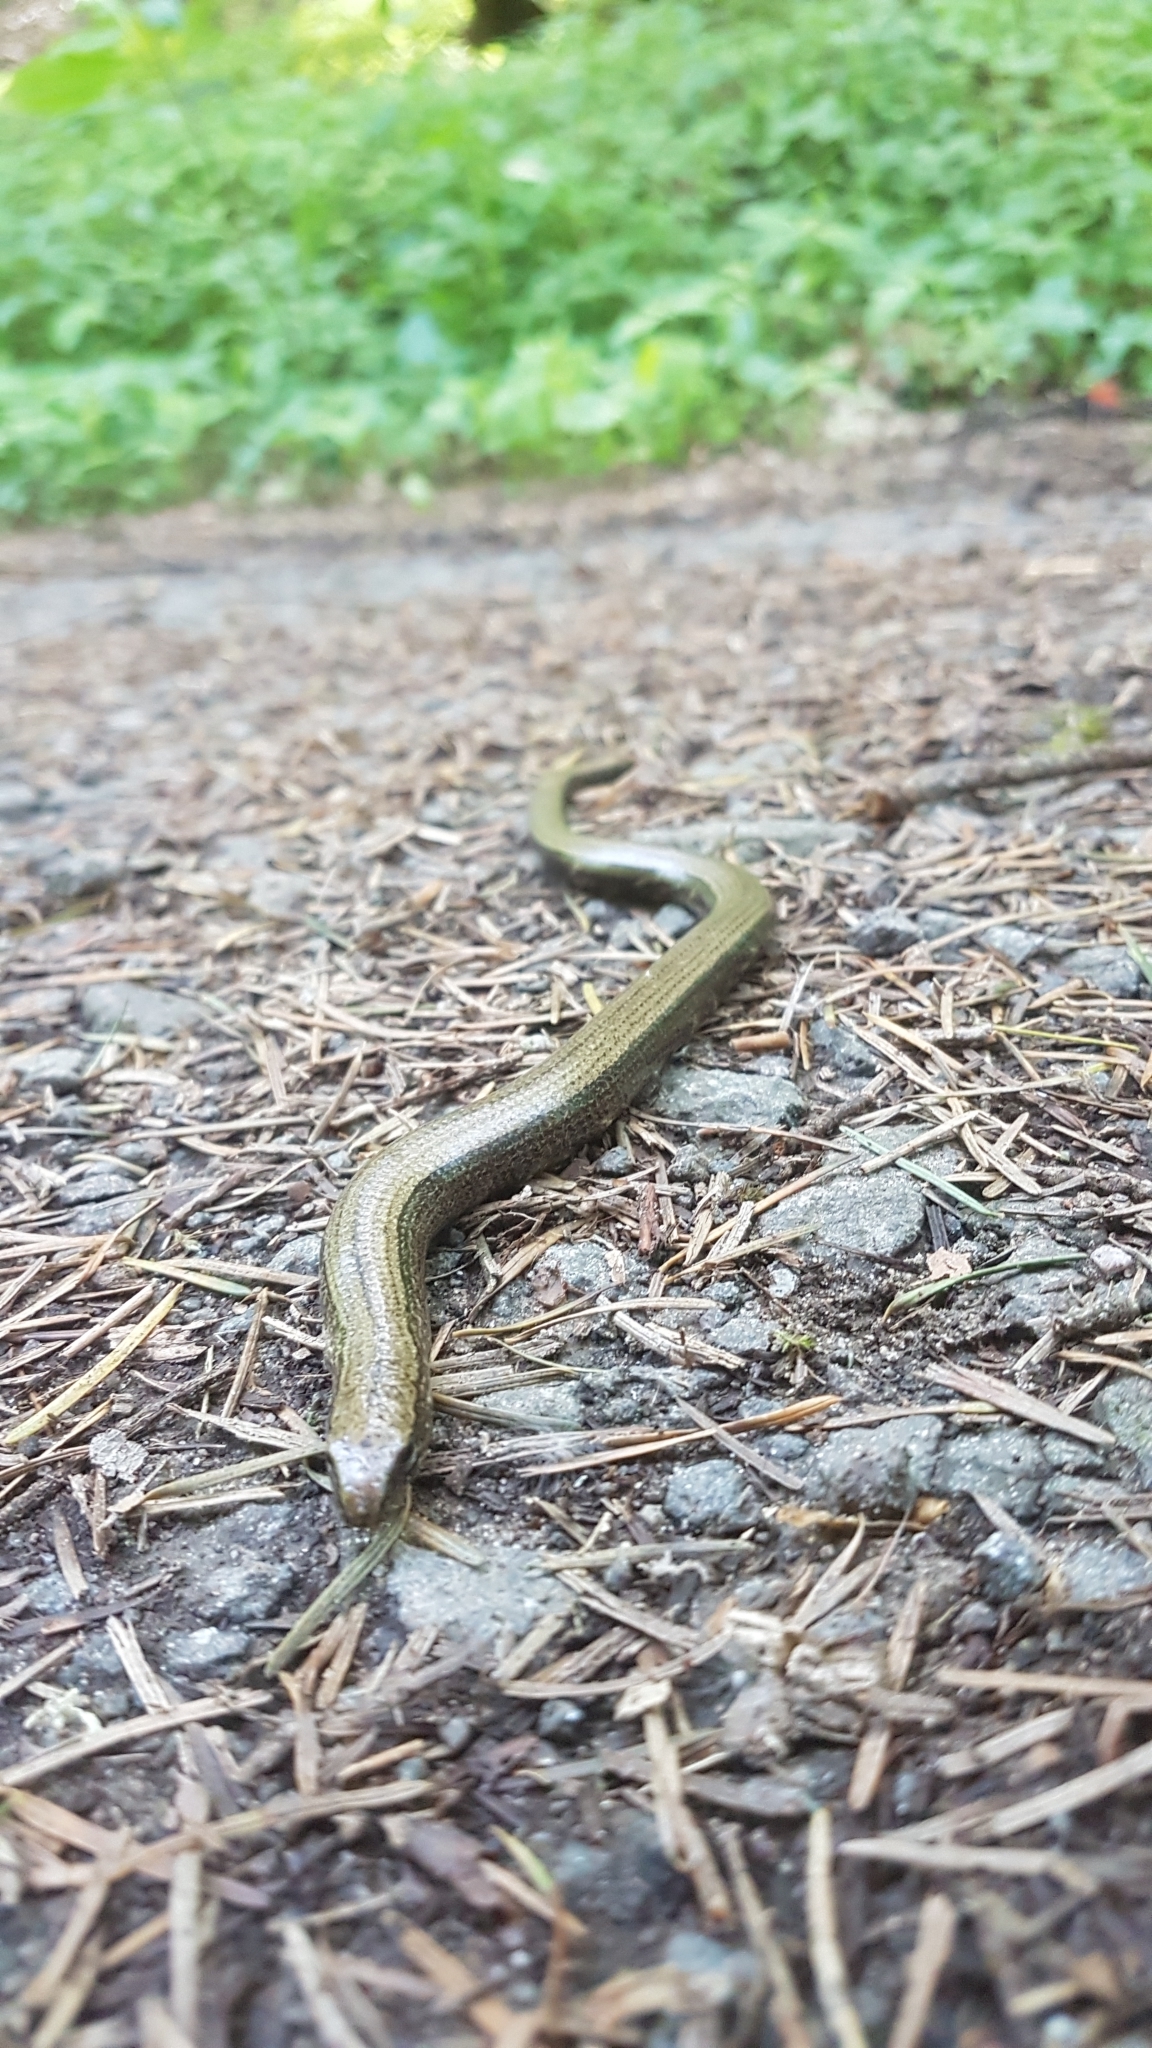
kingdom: Animalia
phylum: Chordata
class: Squamata
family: Anguidae
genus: Anguis
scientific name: Anguis fragilis
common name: Slow worm
